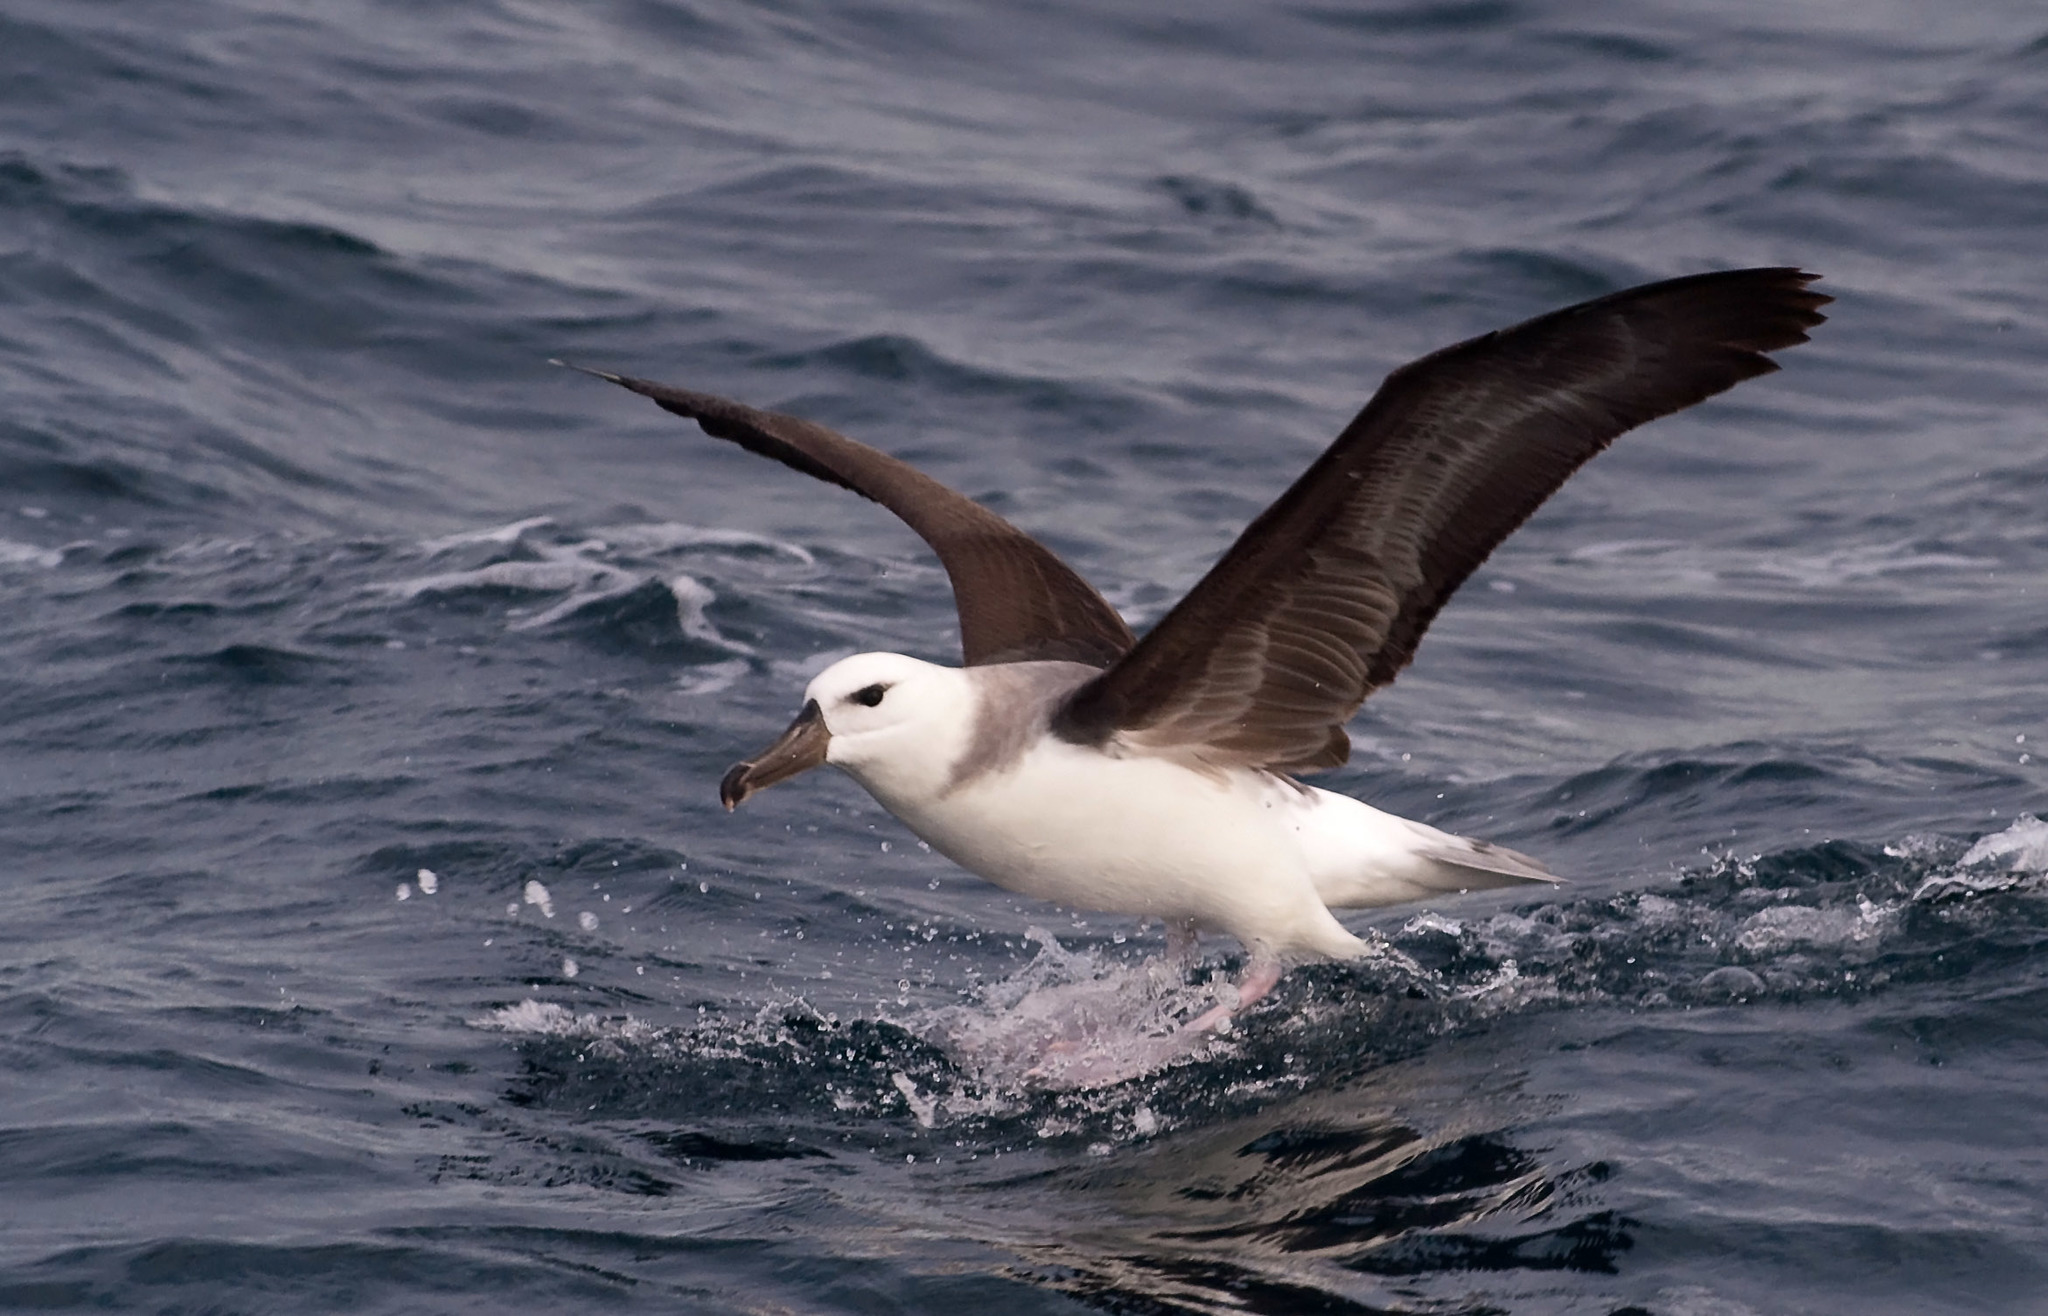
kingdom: Animalia
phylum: Chordata
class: Aves
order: Procellariiformes
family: Diomedeidae
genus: Thalassarche
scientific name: Thalassarche melanophris
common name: Black-browed albatross
